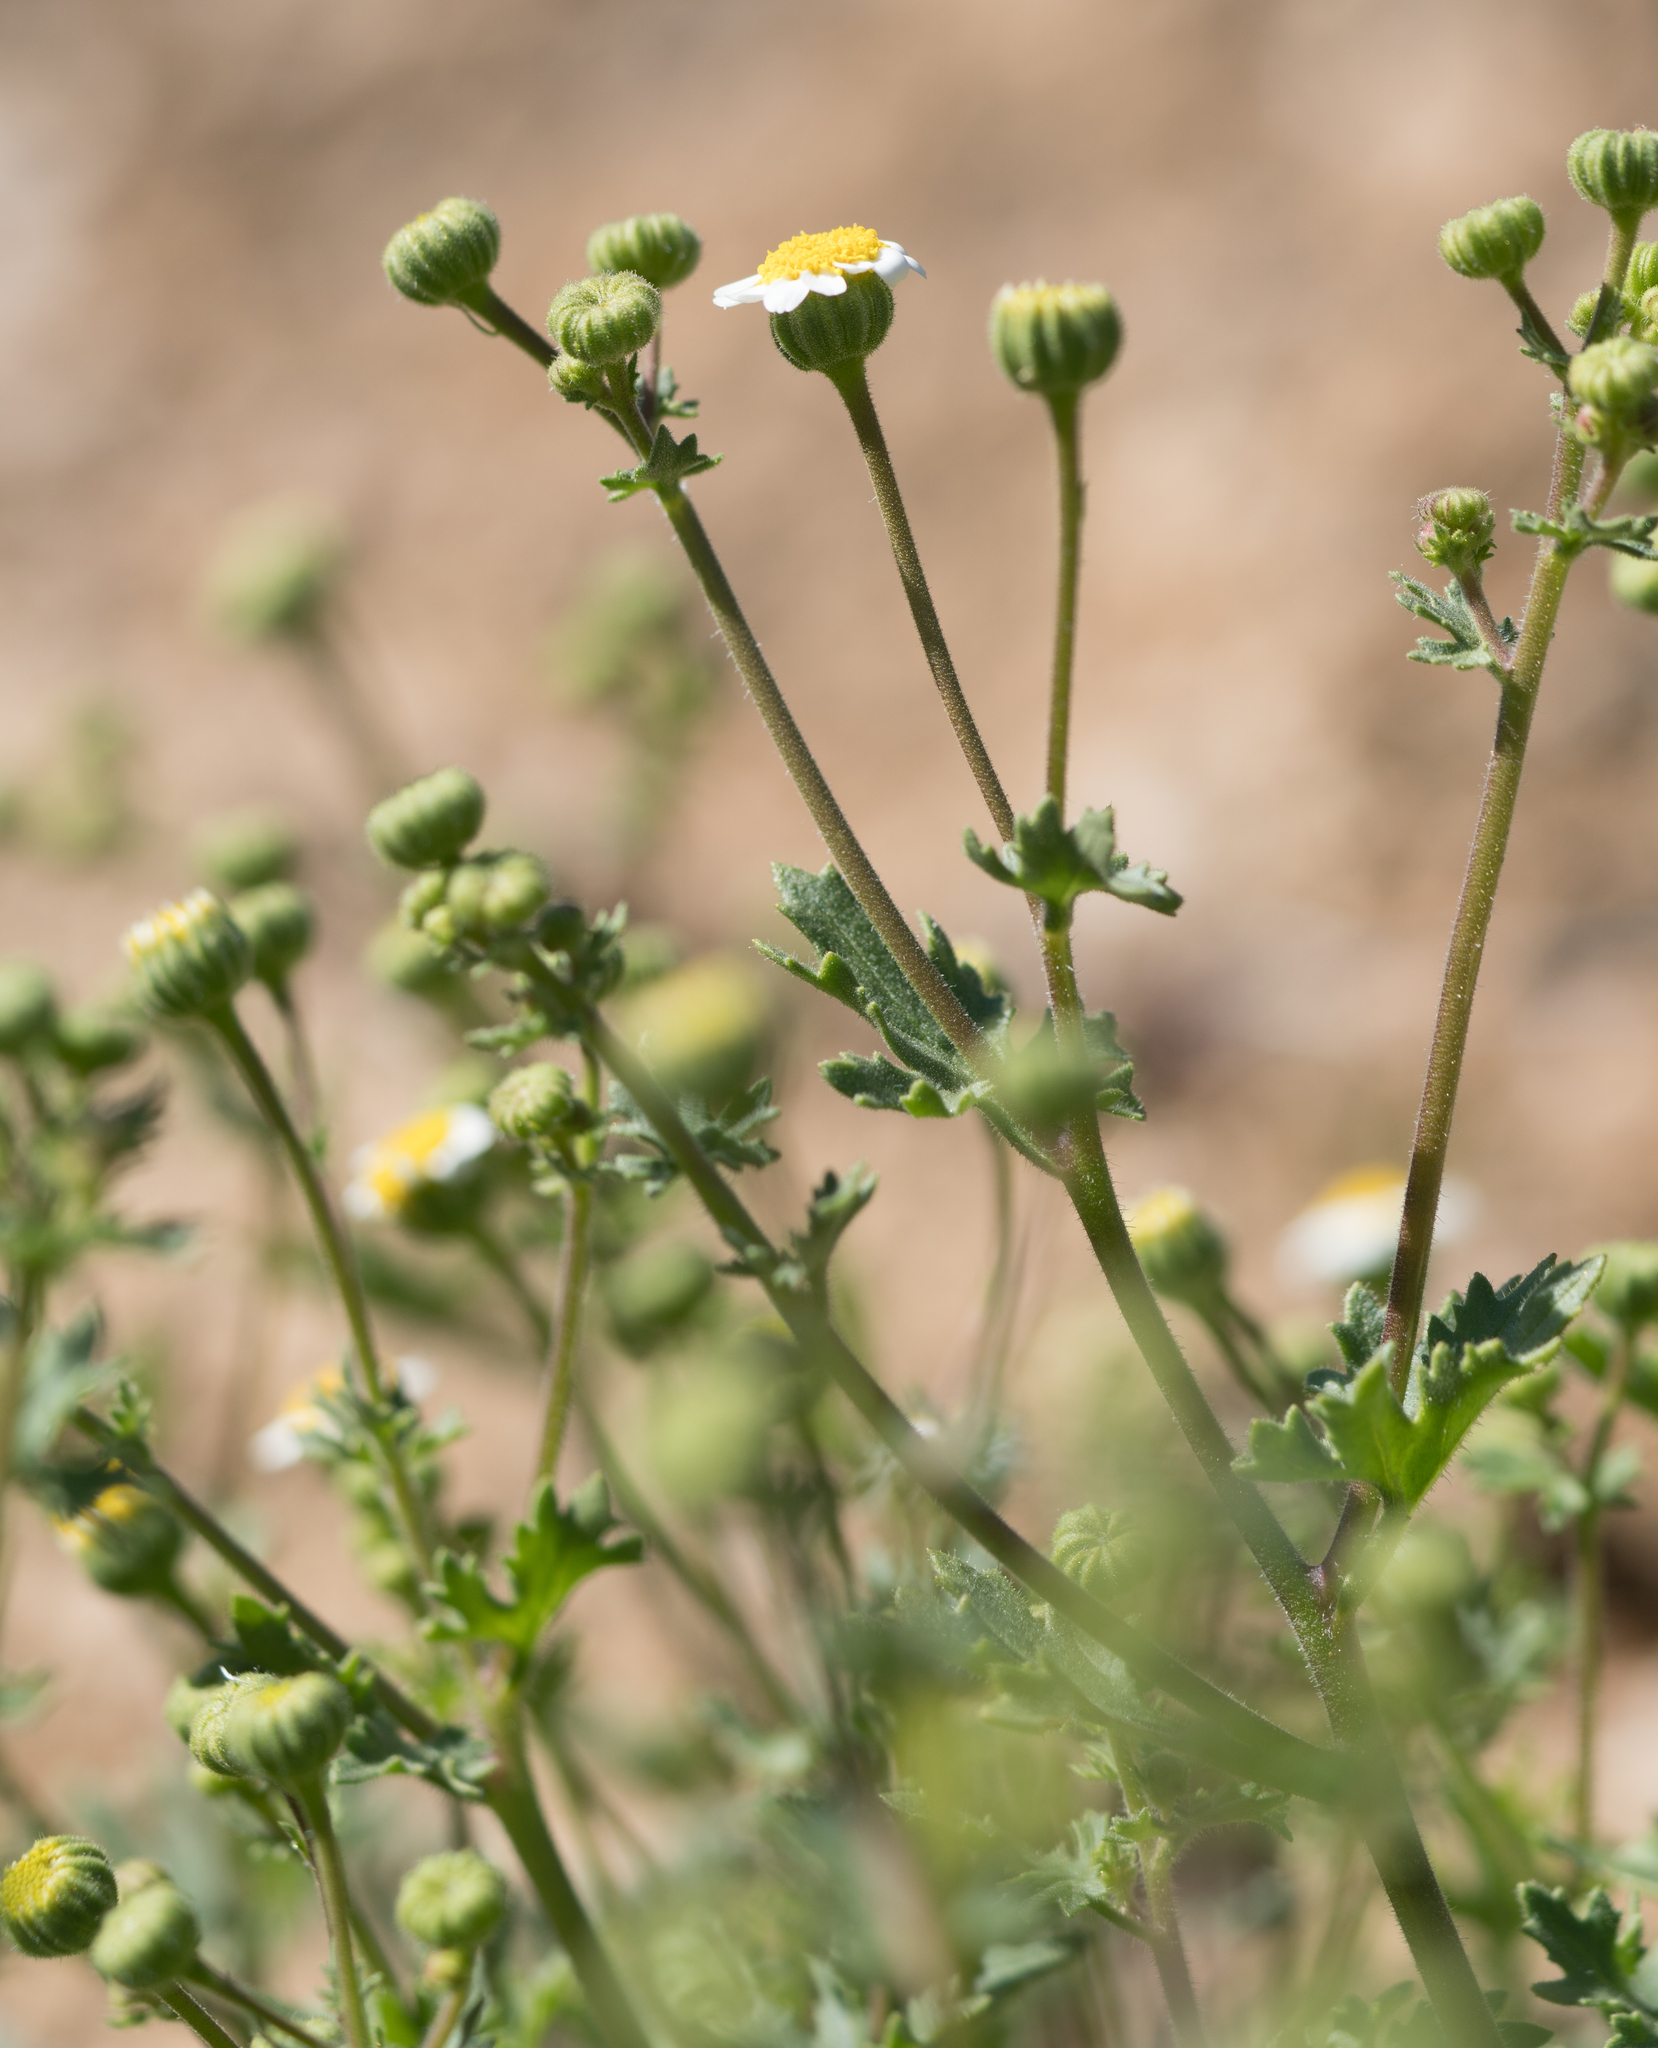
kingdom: Plantae
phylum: Tracheophyta
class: Magnoliopsida
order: Asterales
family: Asteraceae
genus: Laphamia
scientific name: Laphamia emoryi
